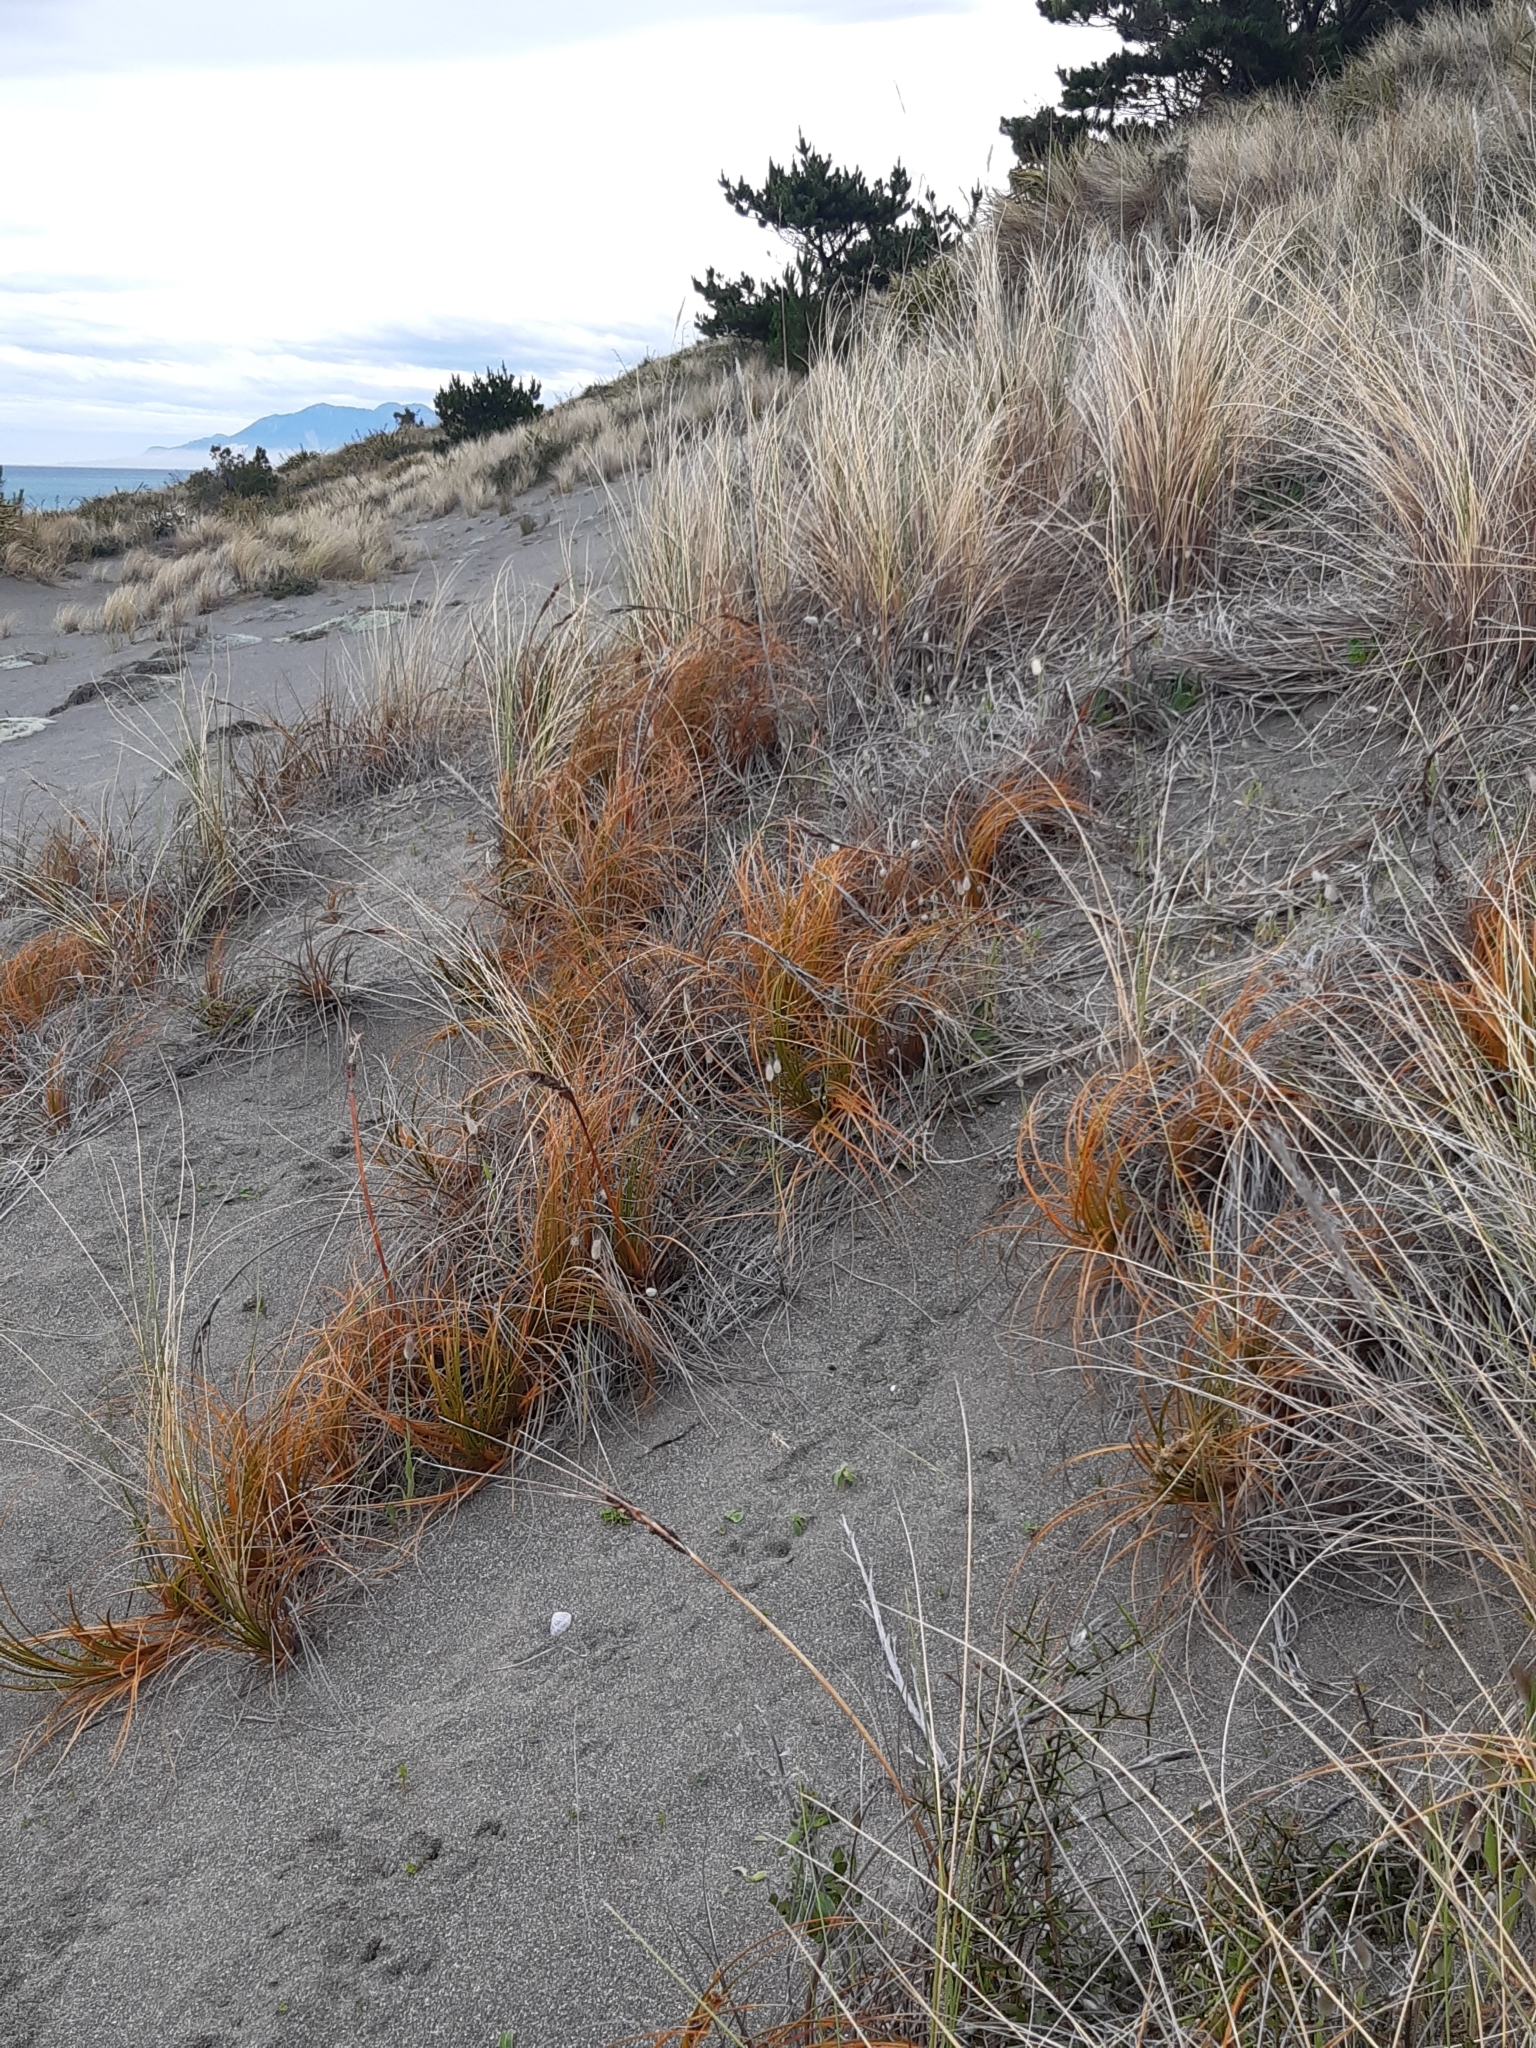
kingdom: Plantae
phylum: Tracheophyta
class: Liliopsida
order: Poales
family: Cyperaceae
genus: Ficinia
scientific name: Ficinia spiralis
